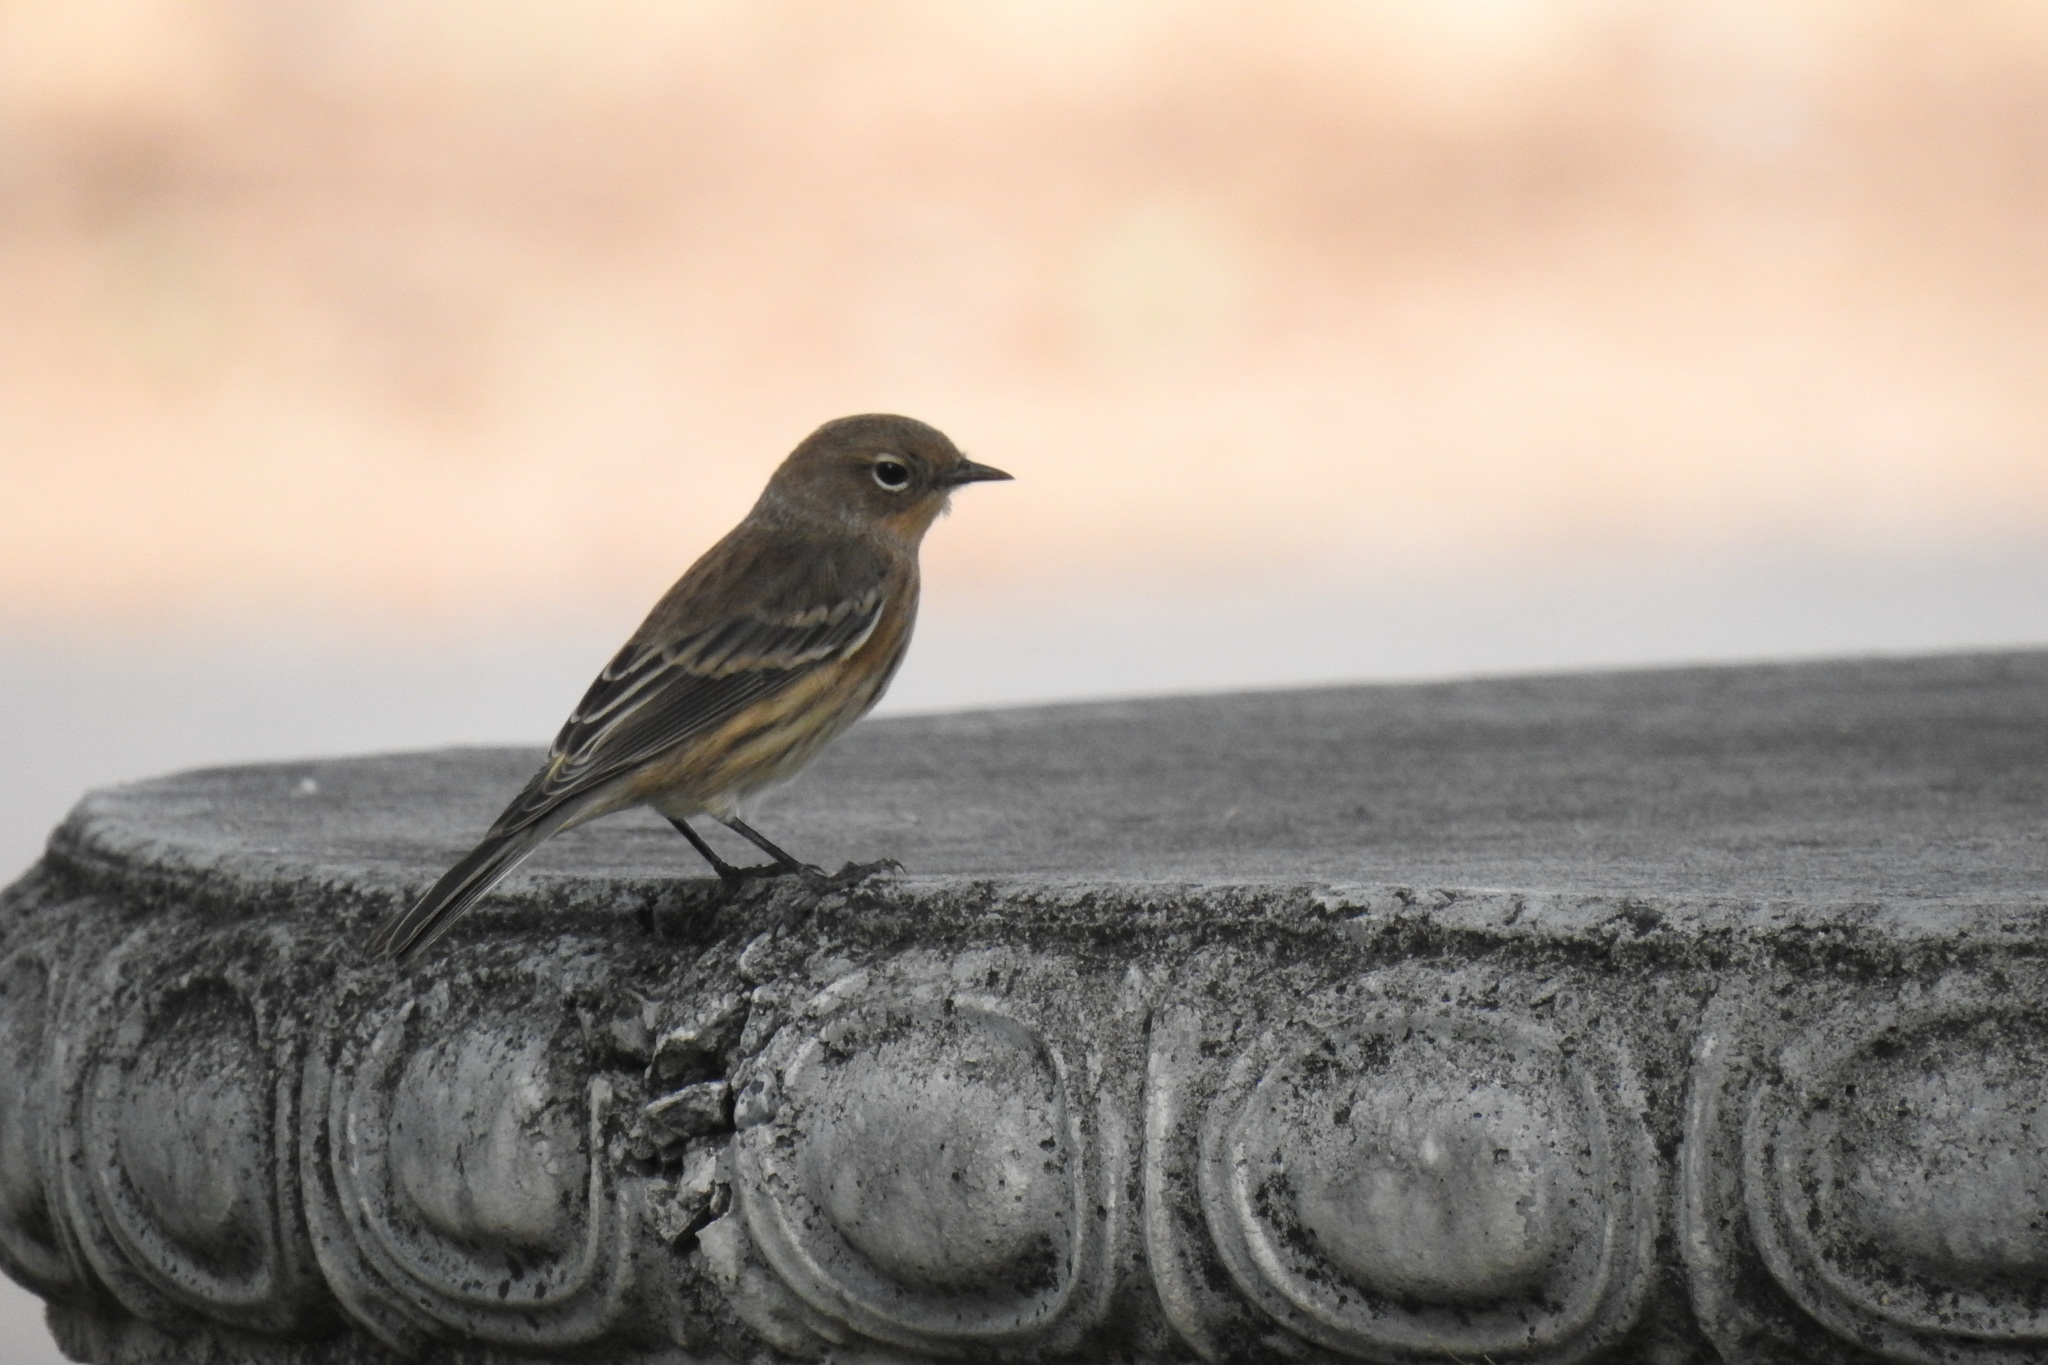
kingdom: Animalia
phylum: Chordata
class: Aves
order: Passeriformes
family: Parulidae
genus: Setophaga
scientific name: Setophaga coronata
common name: Myrtle warbler
